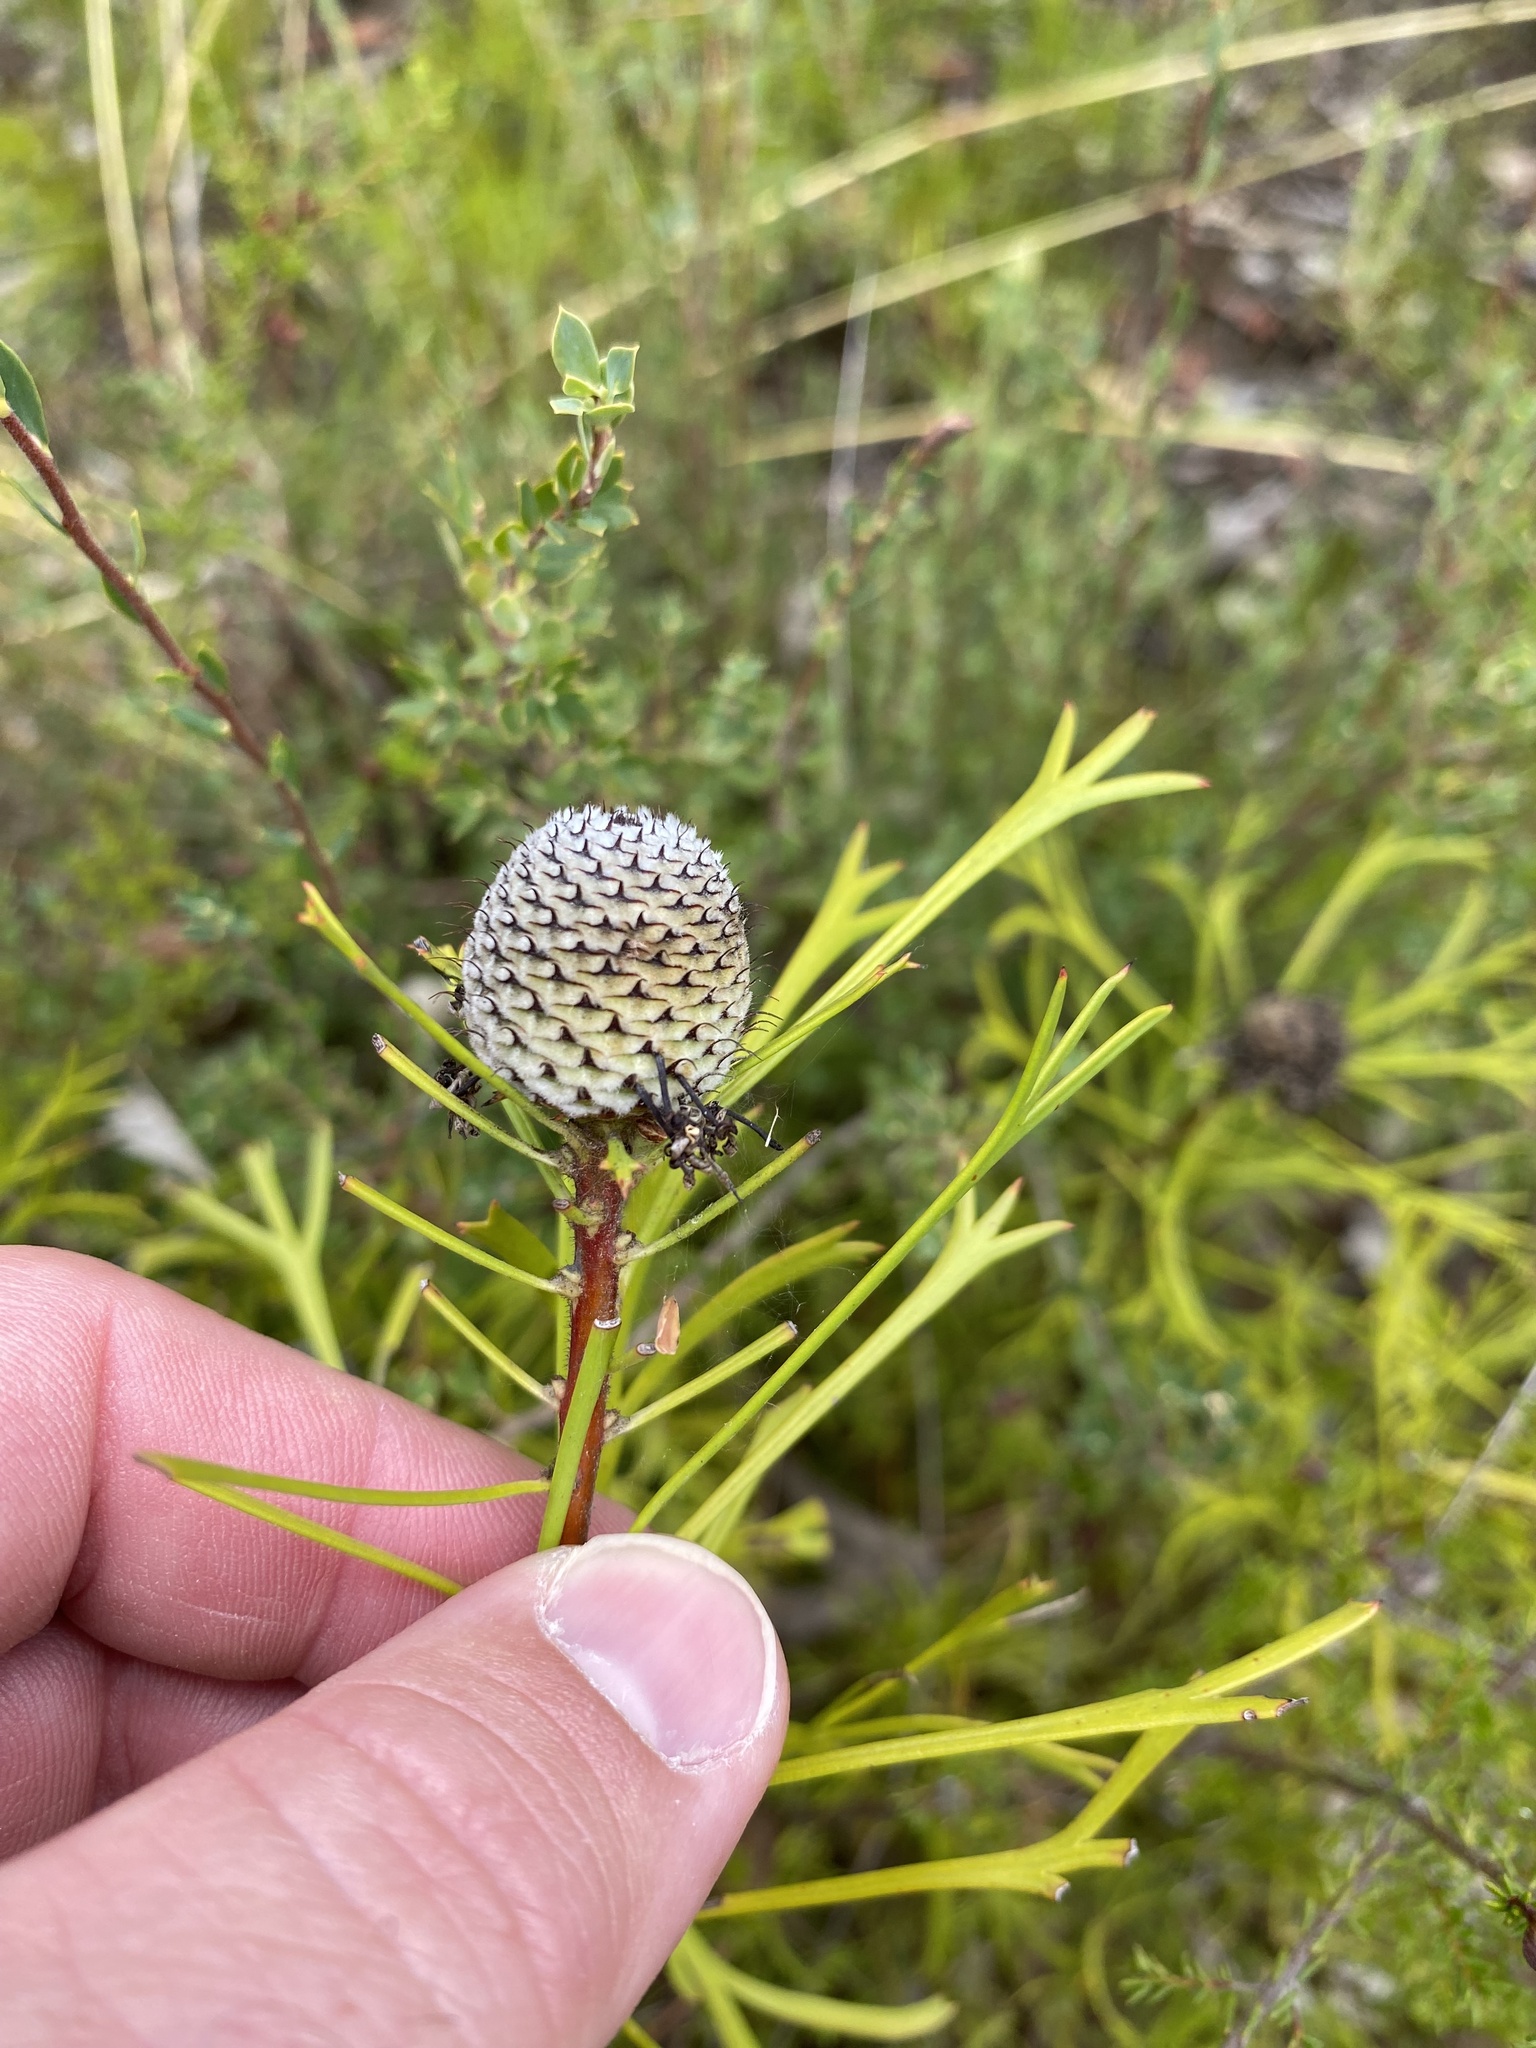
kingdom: Plantae
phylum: Tracheophyta
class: Magnoliopsida
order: Proteales
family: Proteaceae
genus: Isopogon
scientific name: Isopogon anemonifolius
